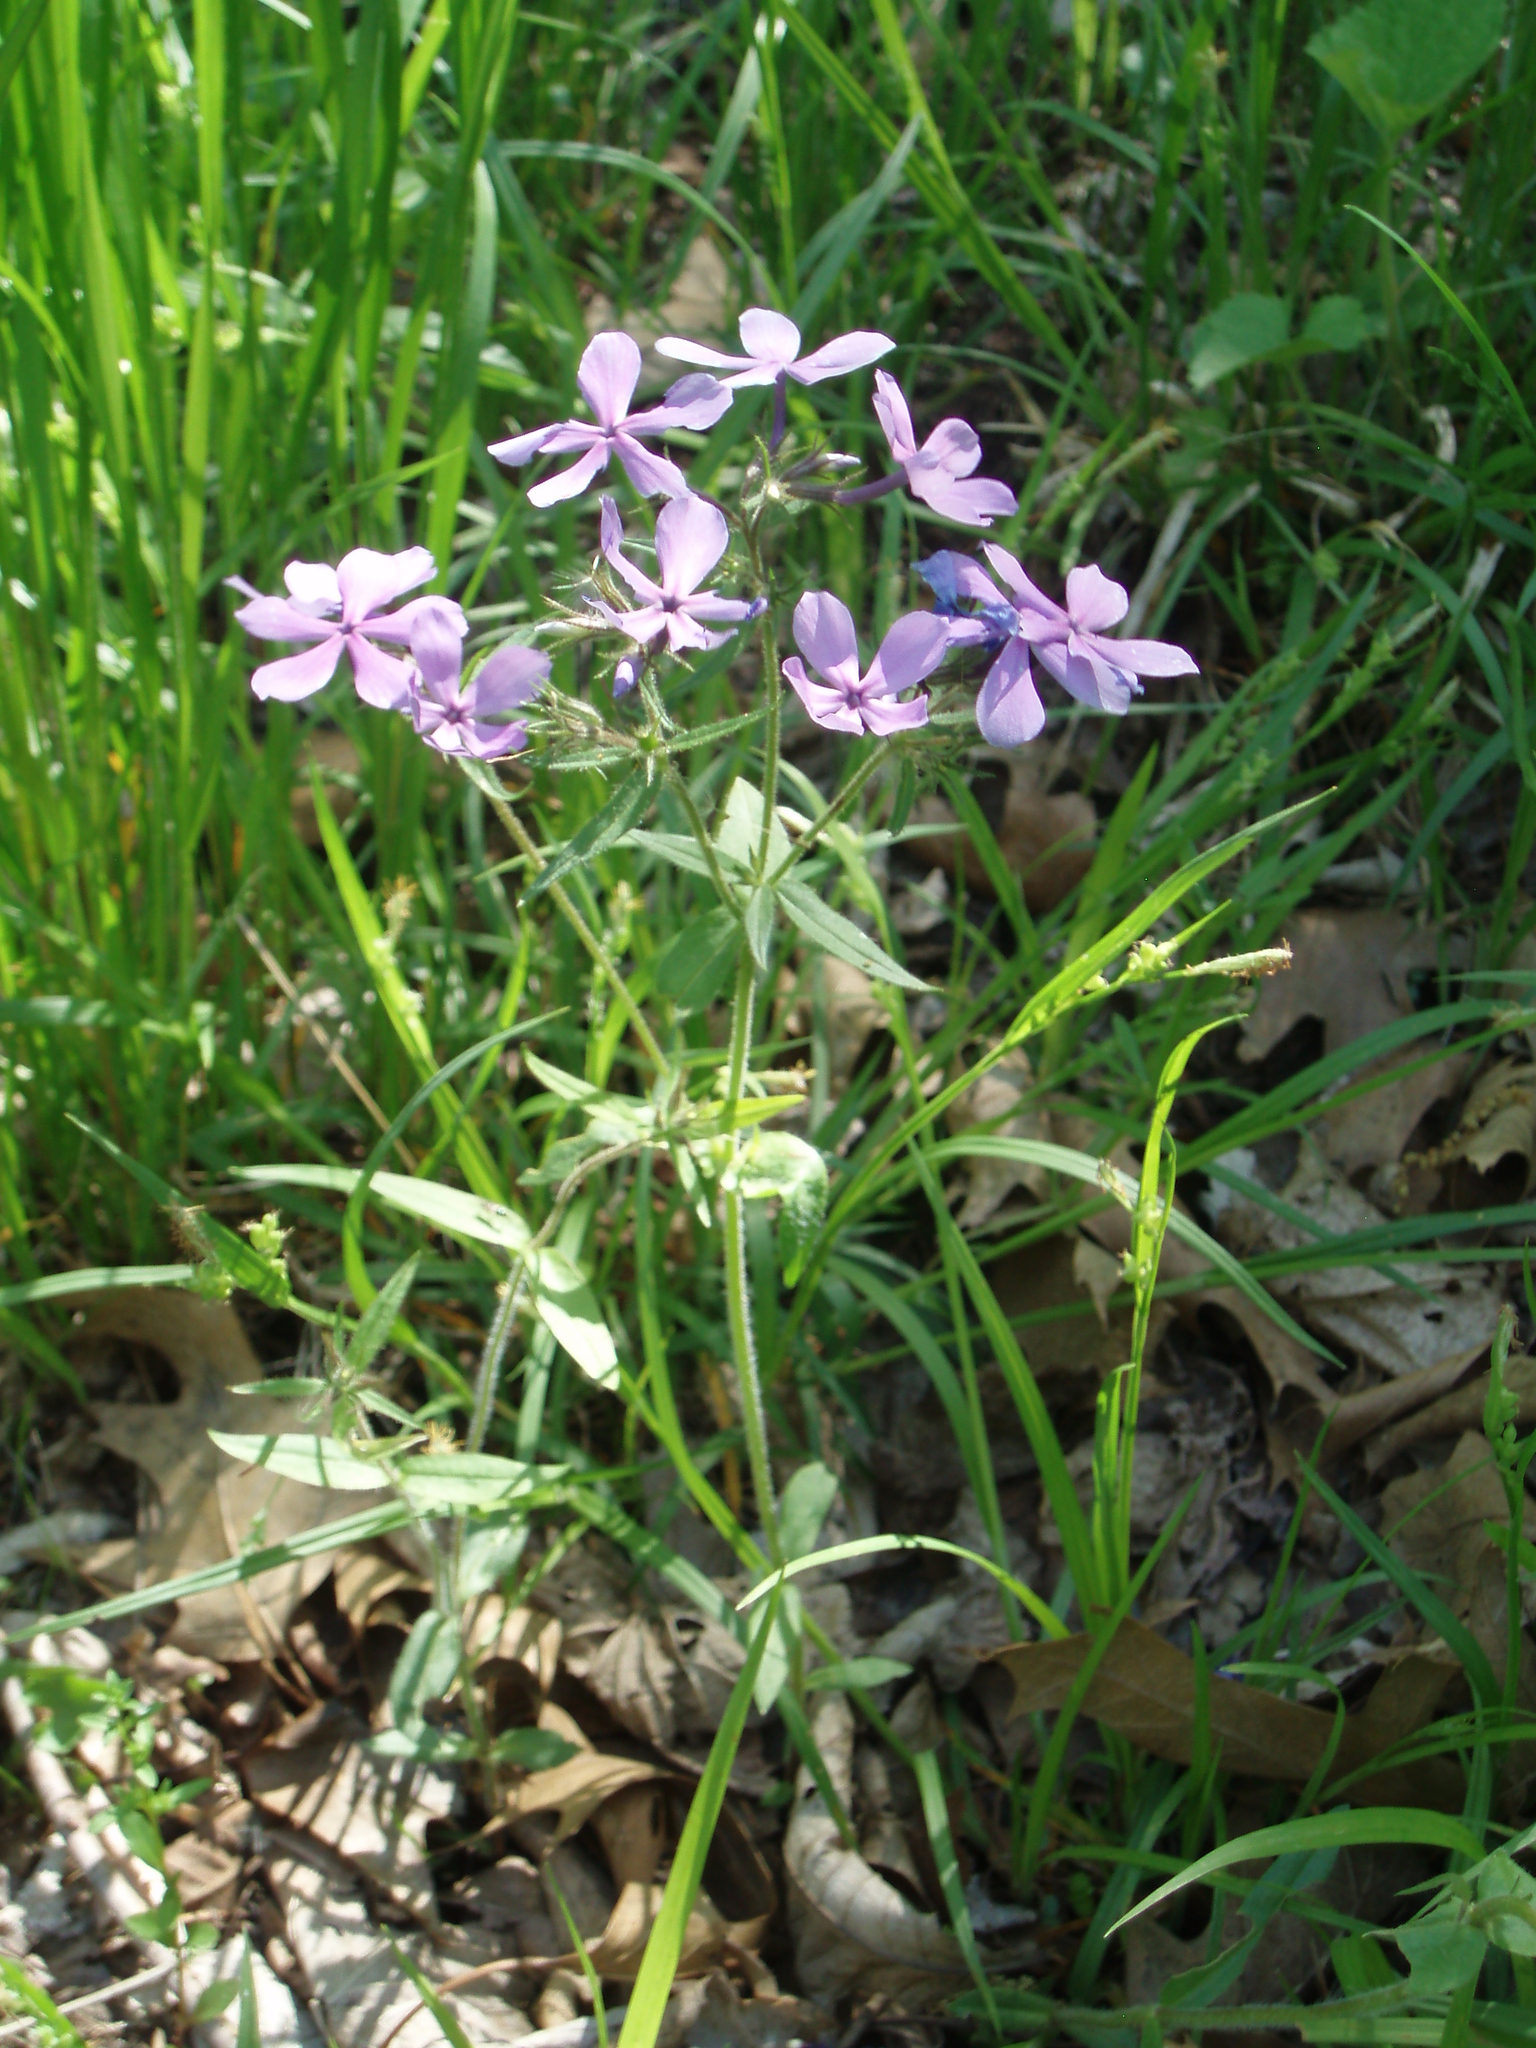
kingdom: Plantae
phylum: Tracheophyta
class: Magnoliopsida
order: Ericales
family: Polemoniaceae
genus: Phlox
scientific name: Phlox divaricata
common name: Blue phlox
